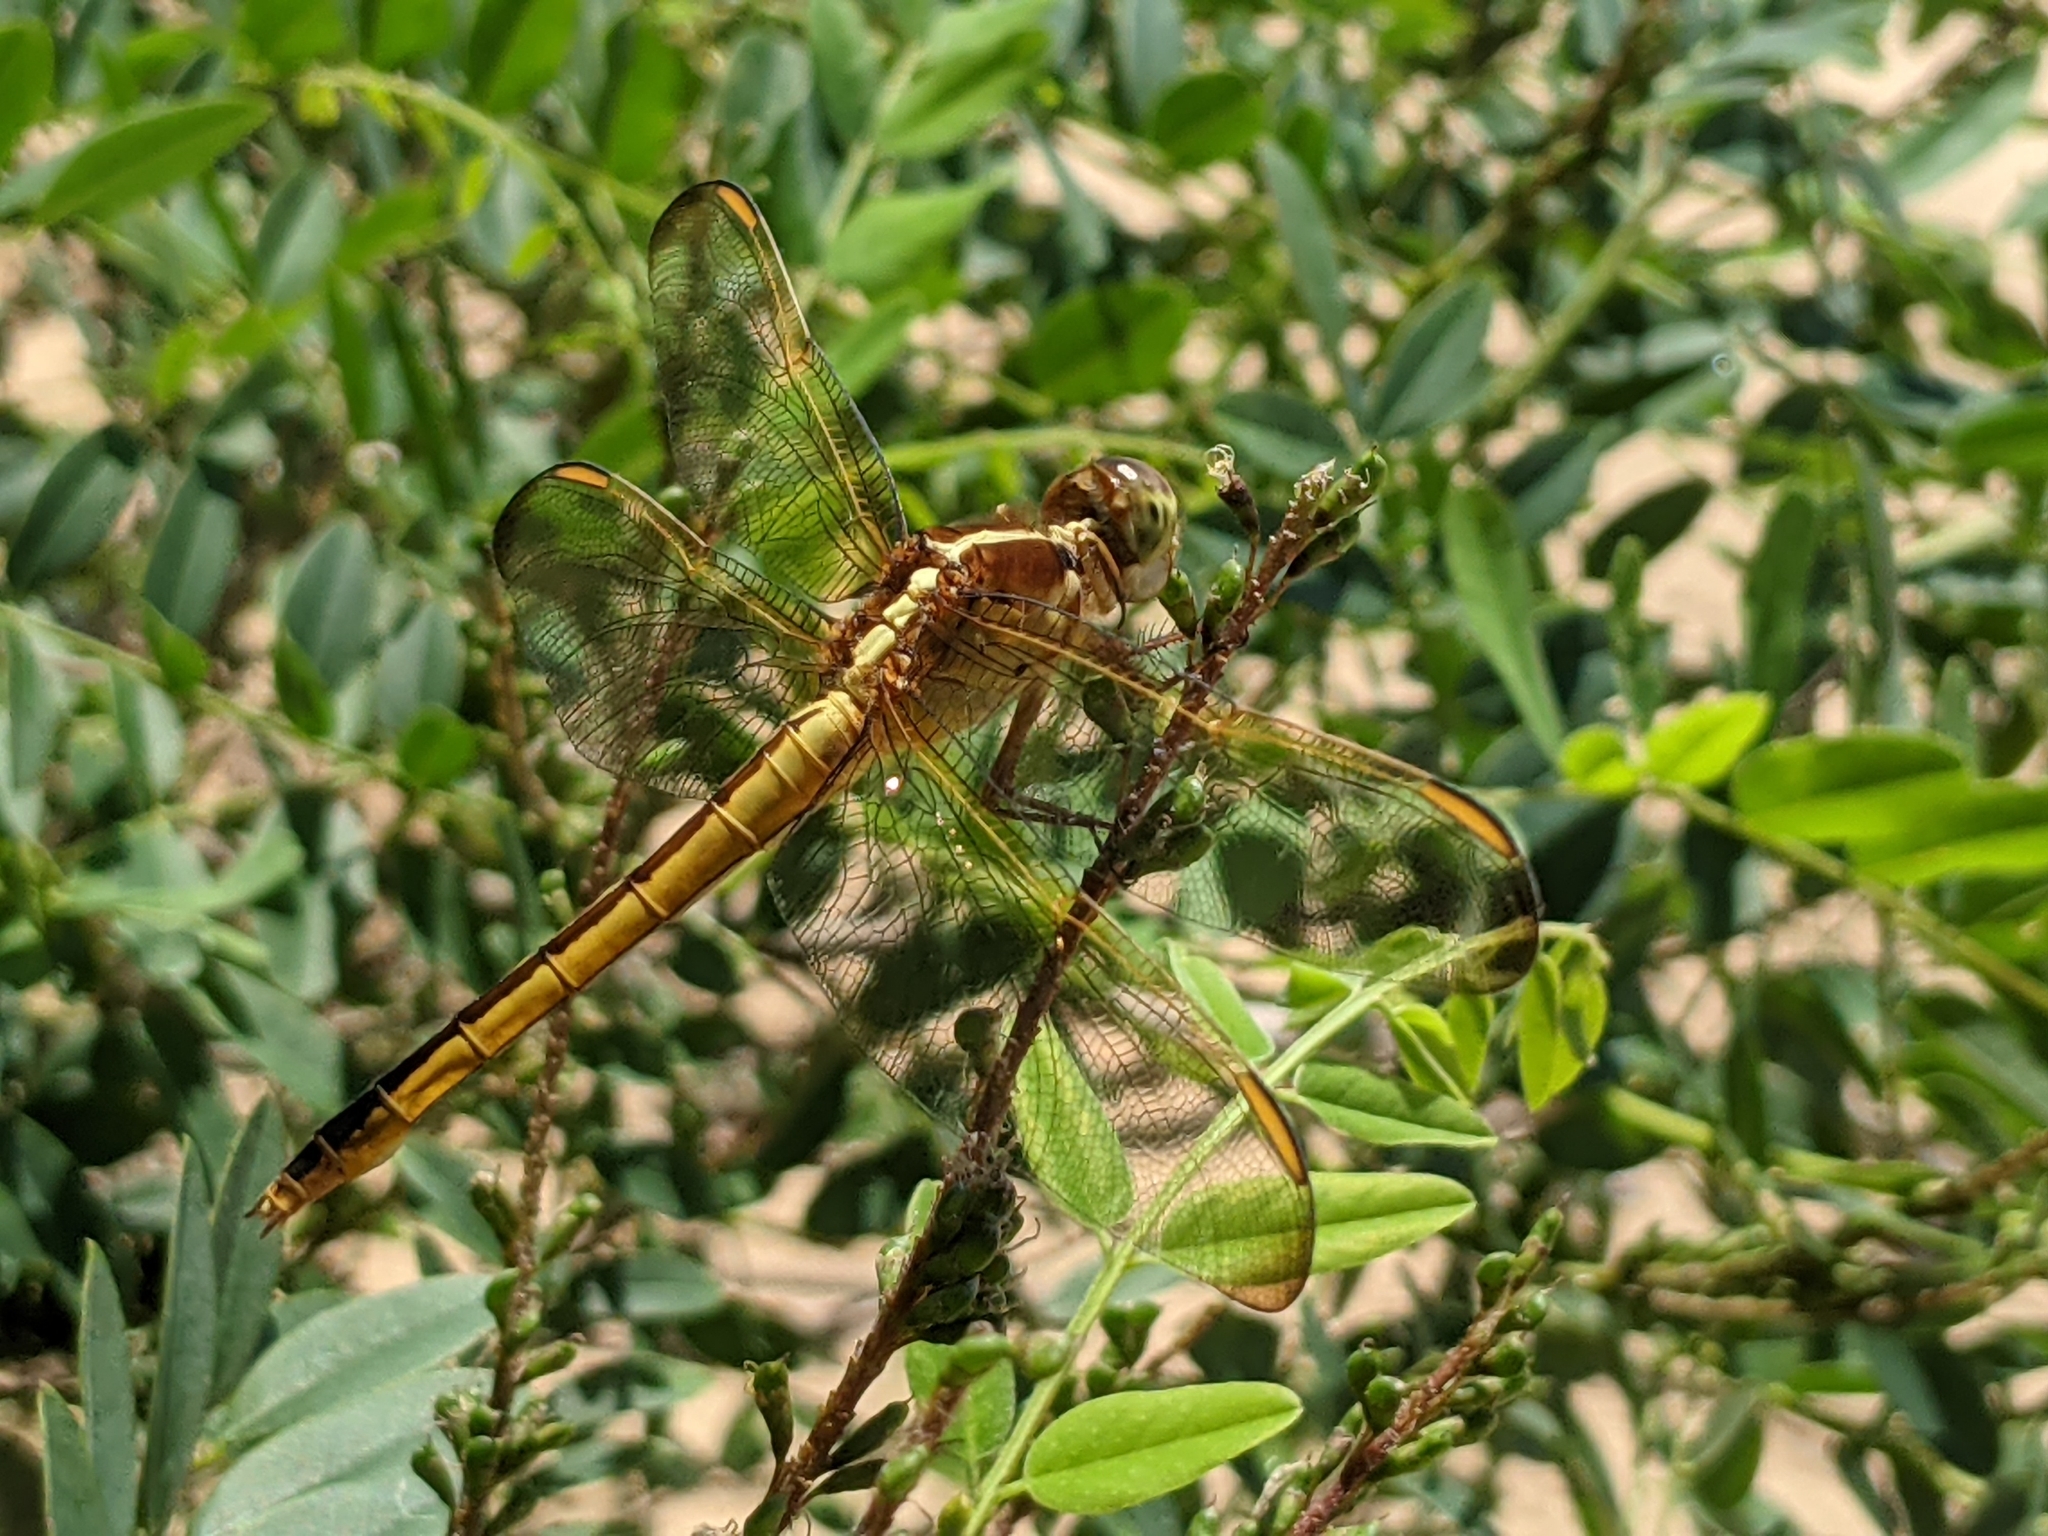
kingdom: Animalia
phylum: Arthropoda
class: Insecta
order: Odonata
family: Libellulidae
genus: Libellula
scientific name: Libellula needhami
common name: Needham's skimmer
